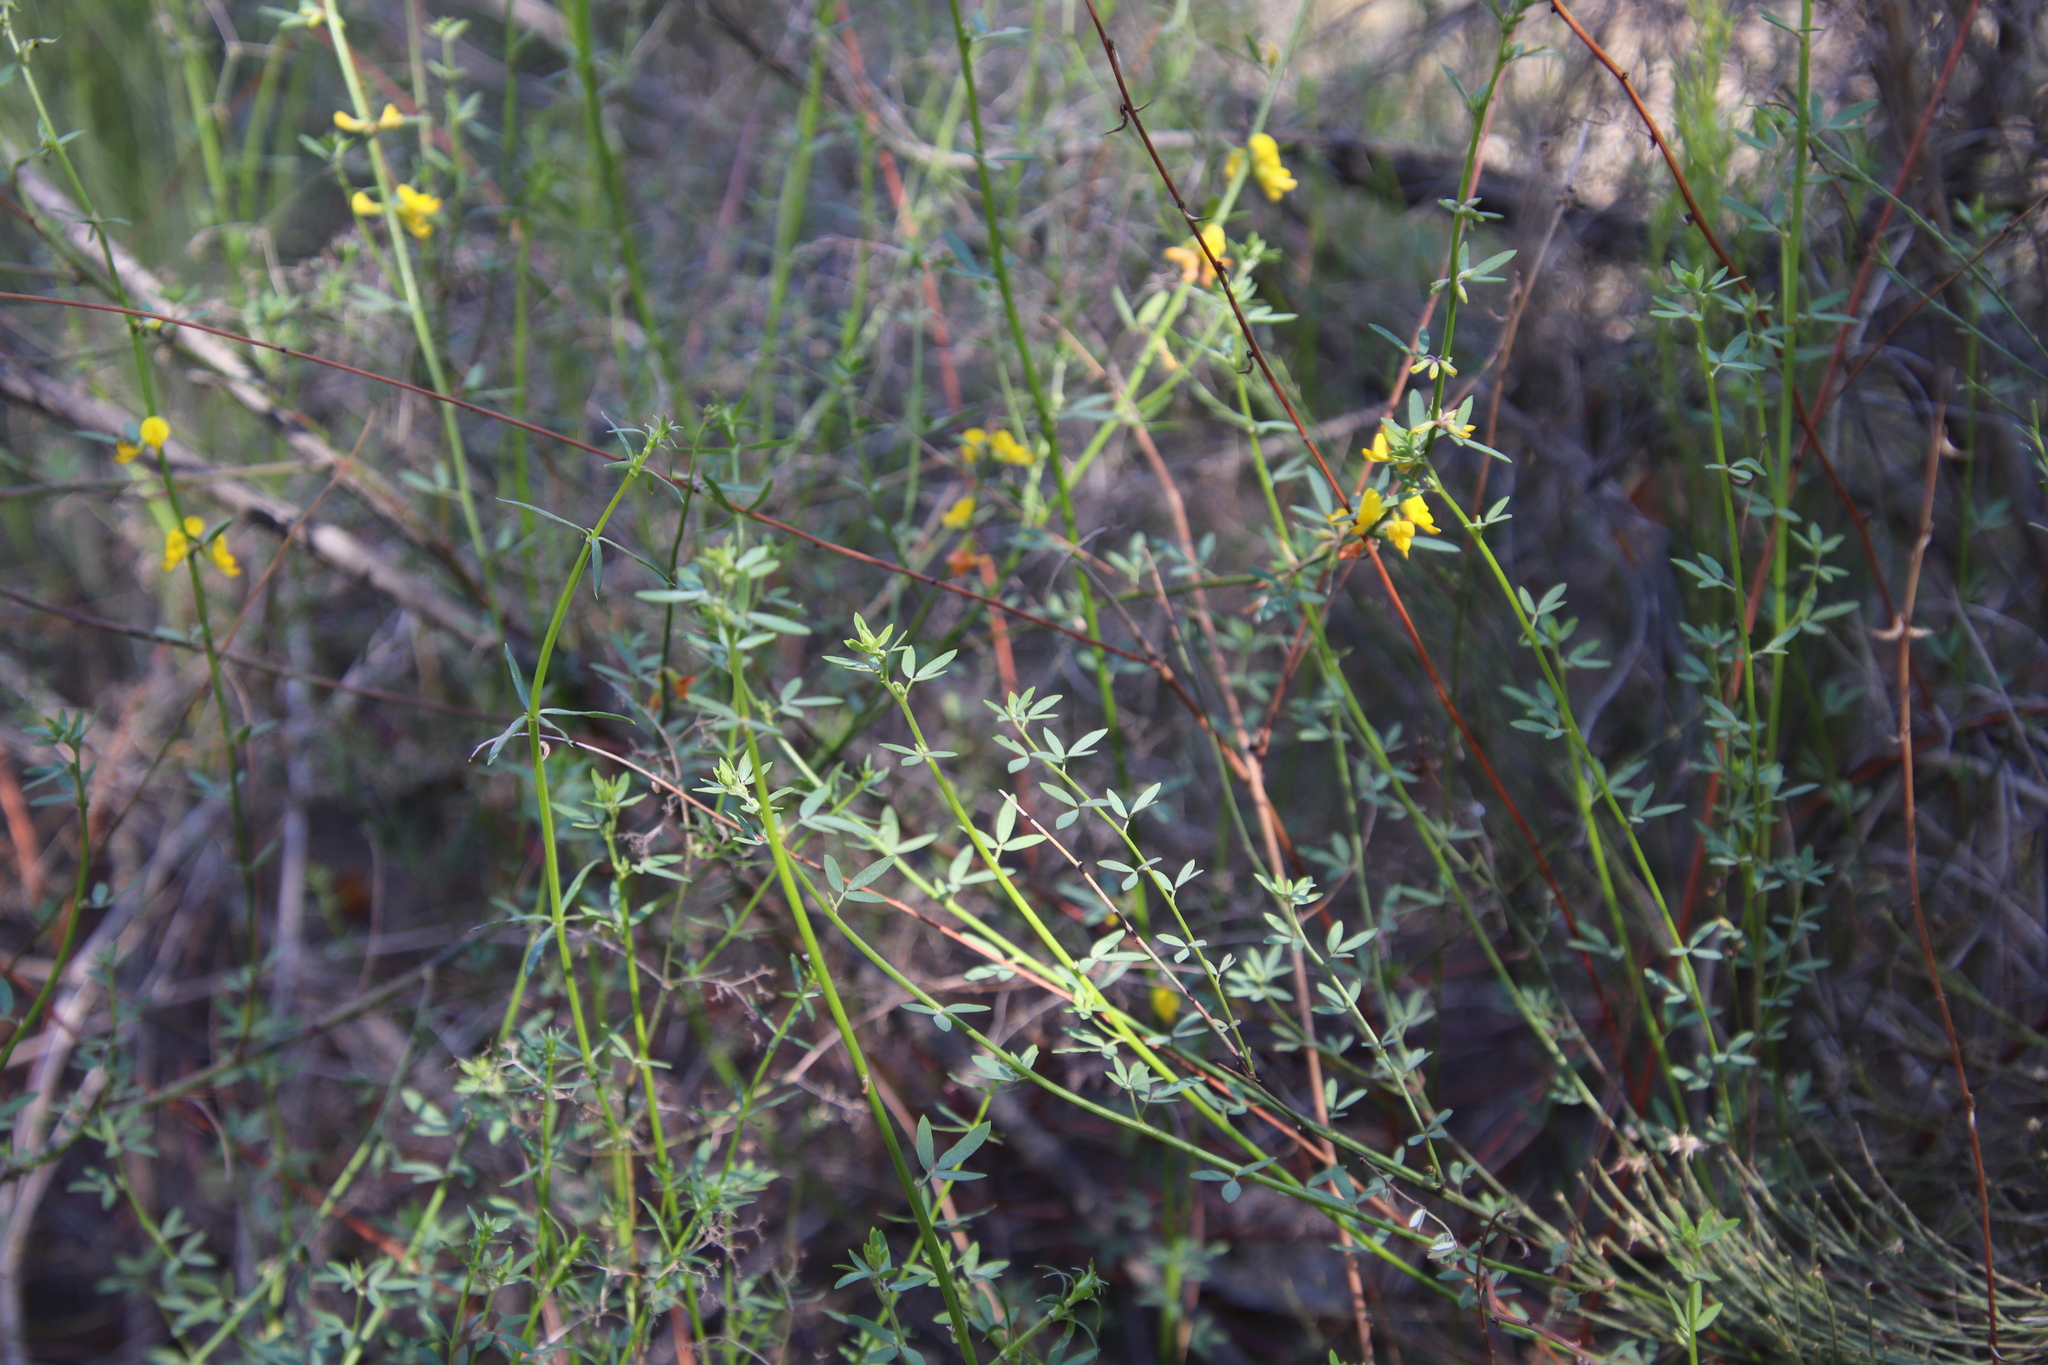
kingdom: Plantae
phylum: Tracheophyta
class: Magnoliopsida
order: Fabales
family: Fabaceae
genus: Acmispon
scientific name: Acmispon glaber
